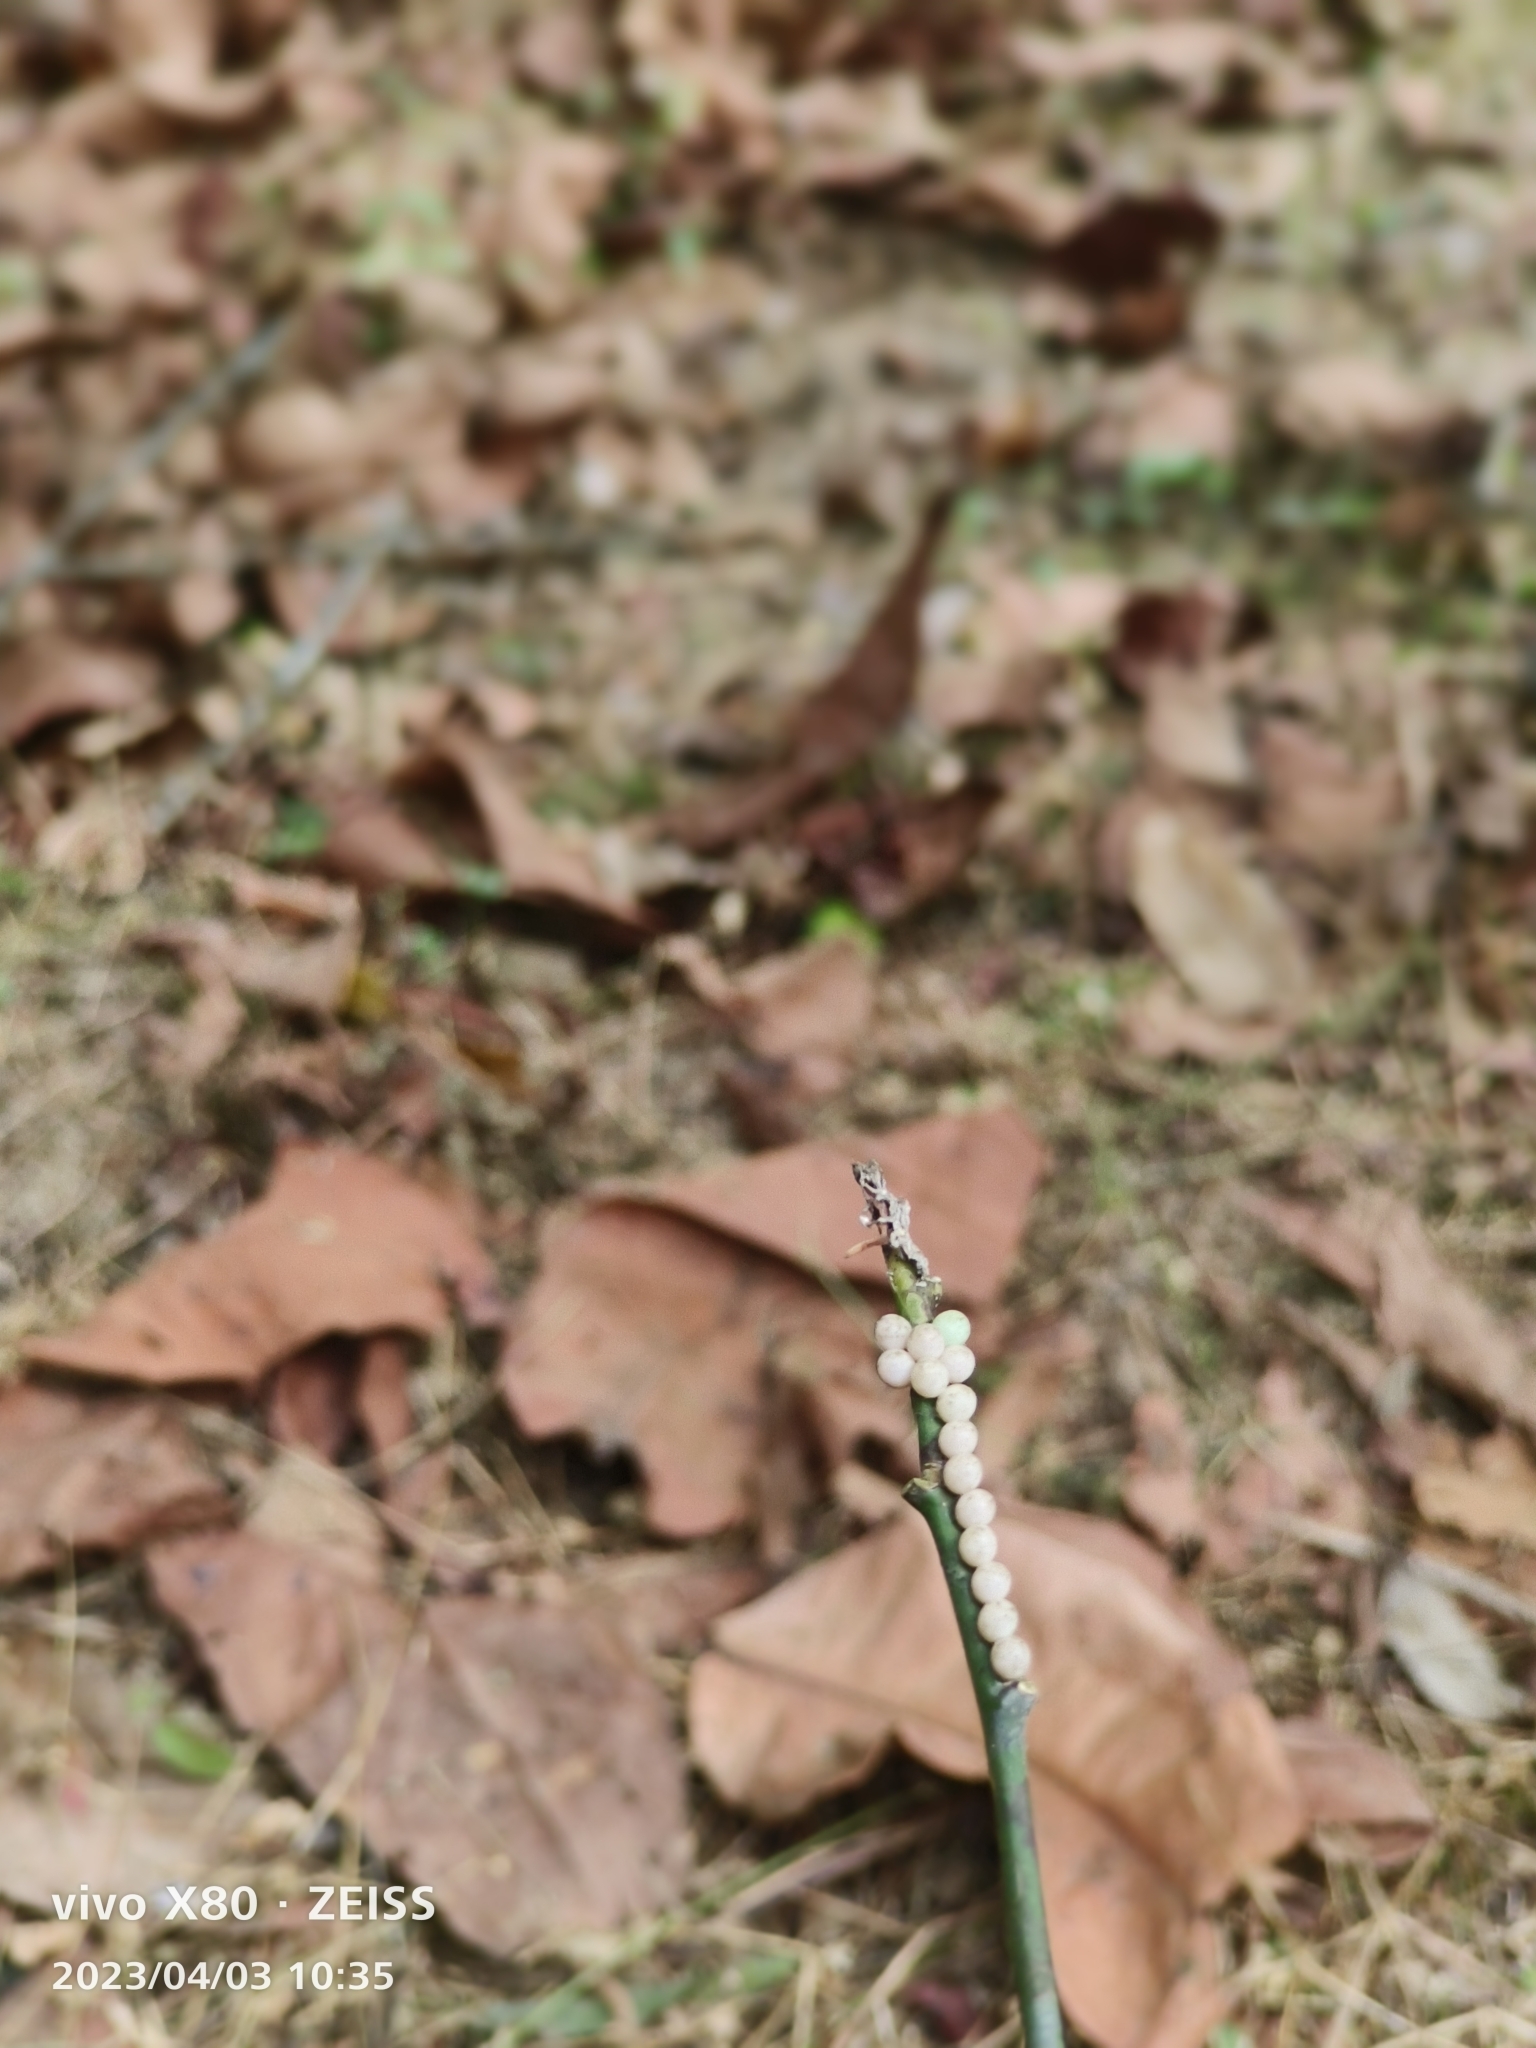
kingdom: Animalia
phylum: Arthropoda
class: Insecta
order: Hemiptera
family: Tessaratomidae
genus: Tessaratoma
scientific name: Tessaratoma papillosa
